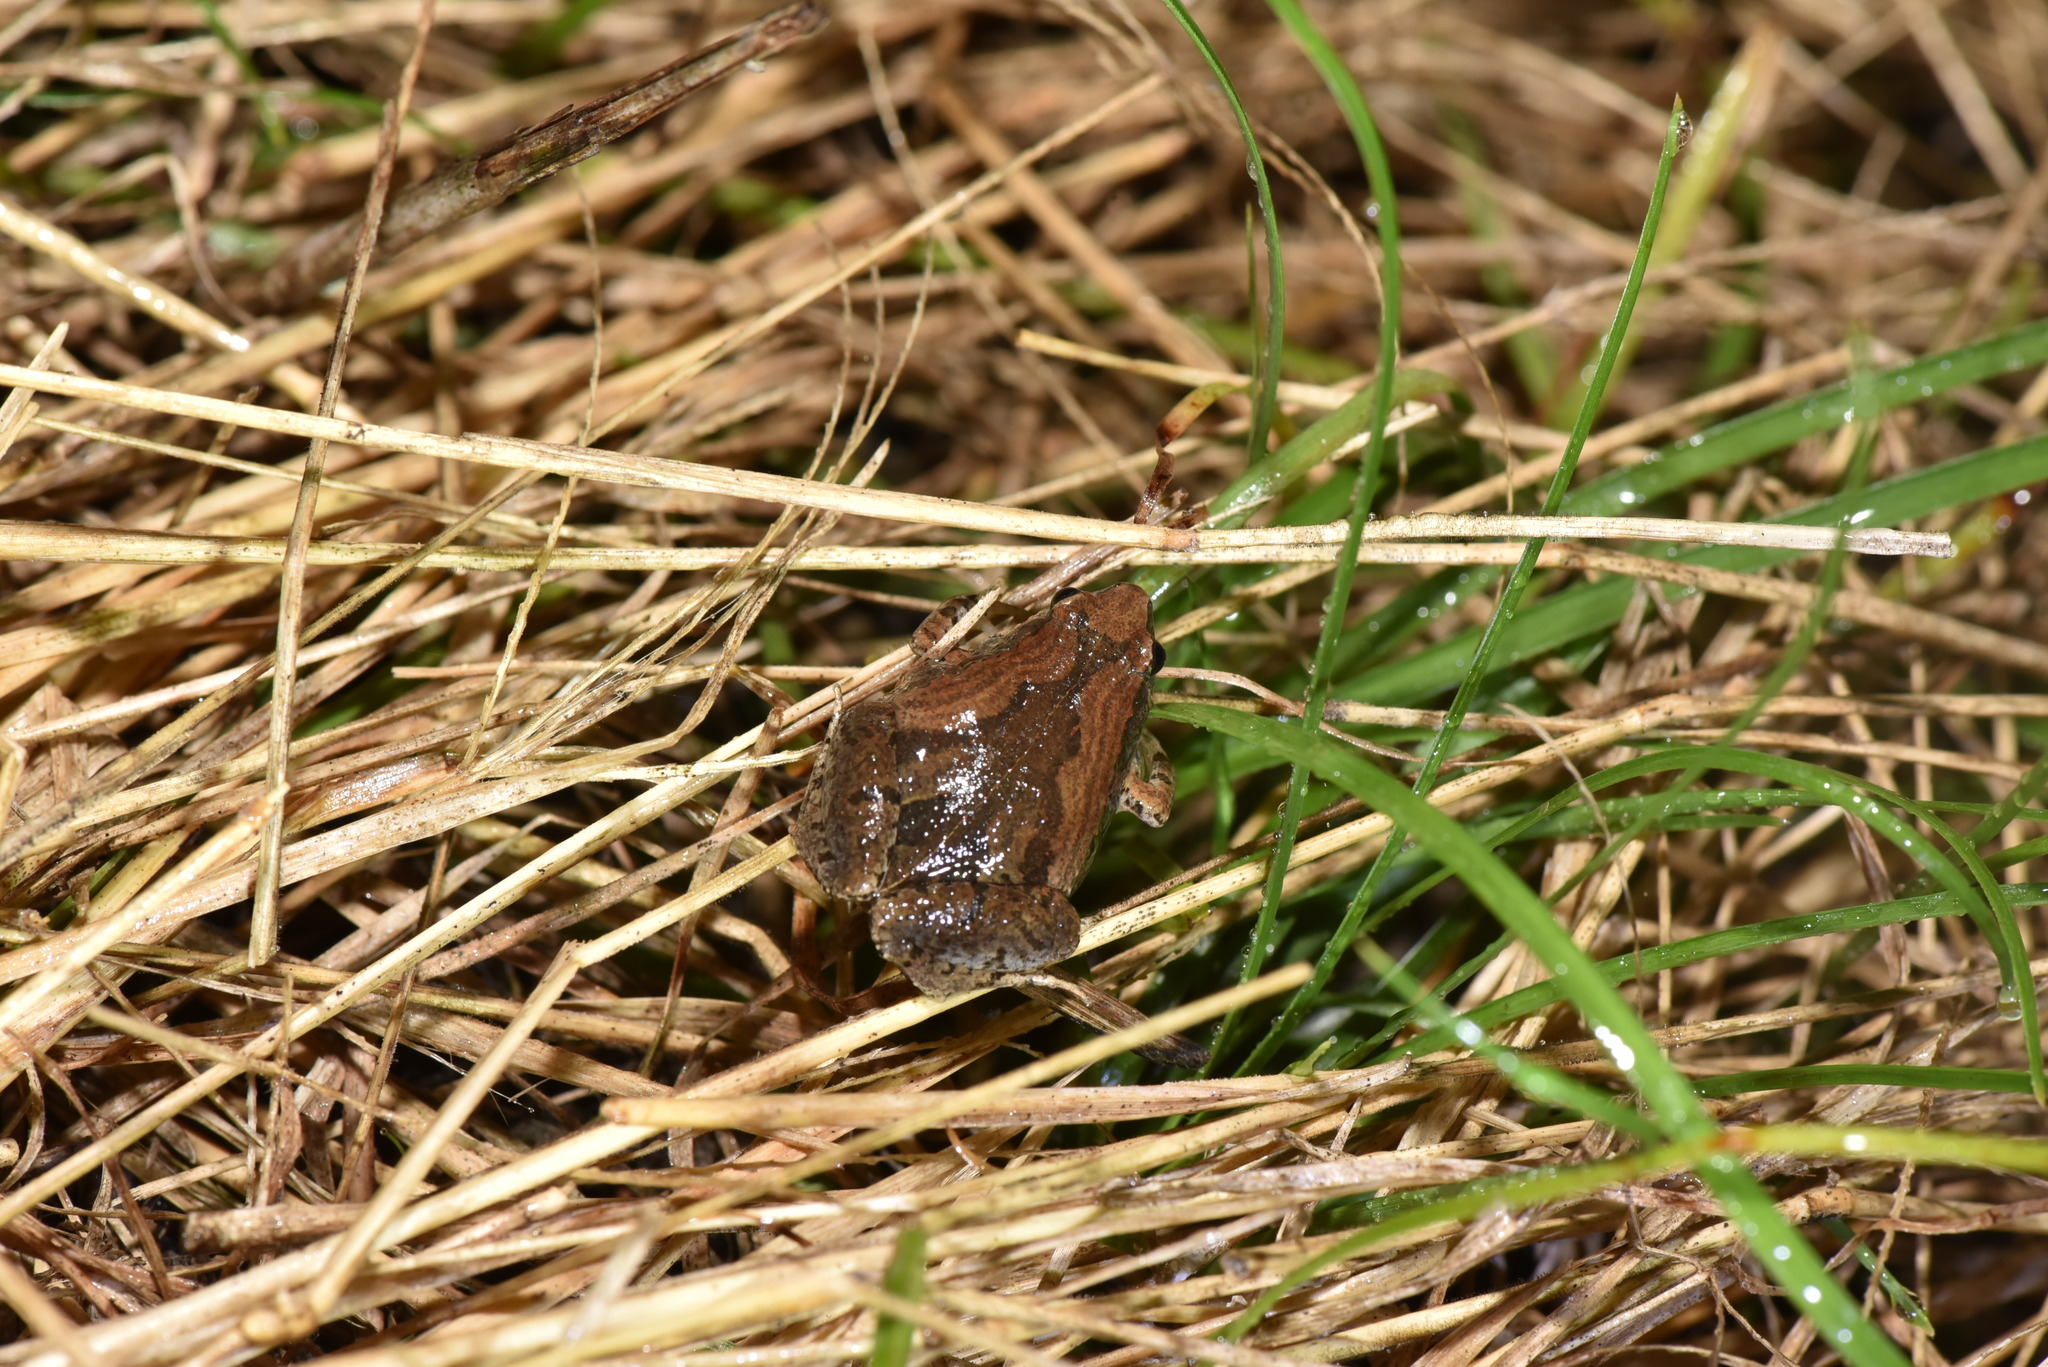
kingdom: Animalia
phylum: Chordata
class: Amphibia
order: Anura
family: Microhylidae
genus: Microhyla
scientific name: Microhyla fissipes
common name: Ornate narrow-mouthed frog
